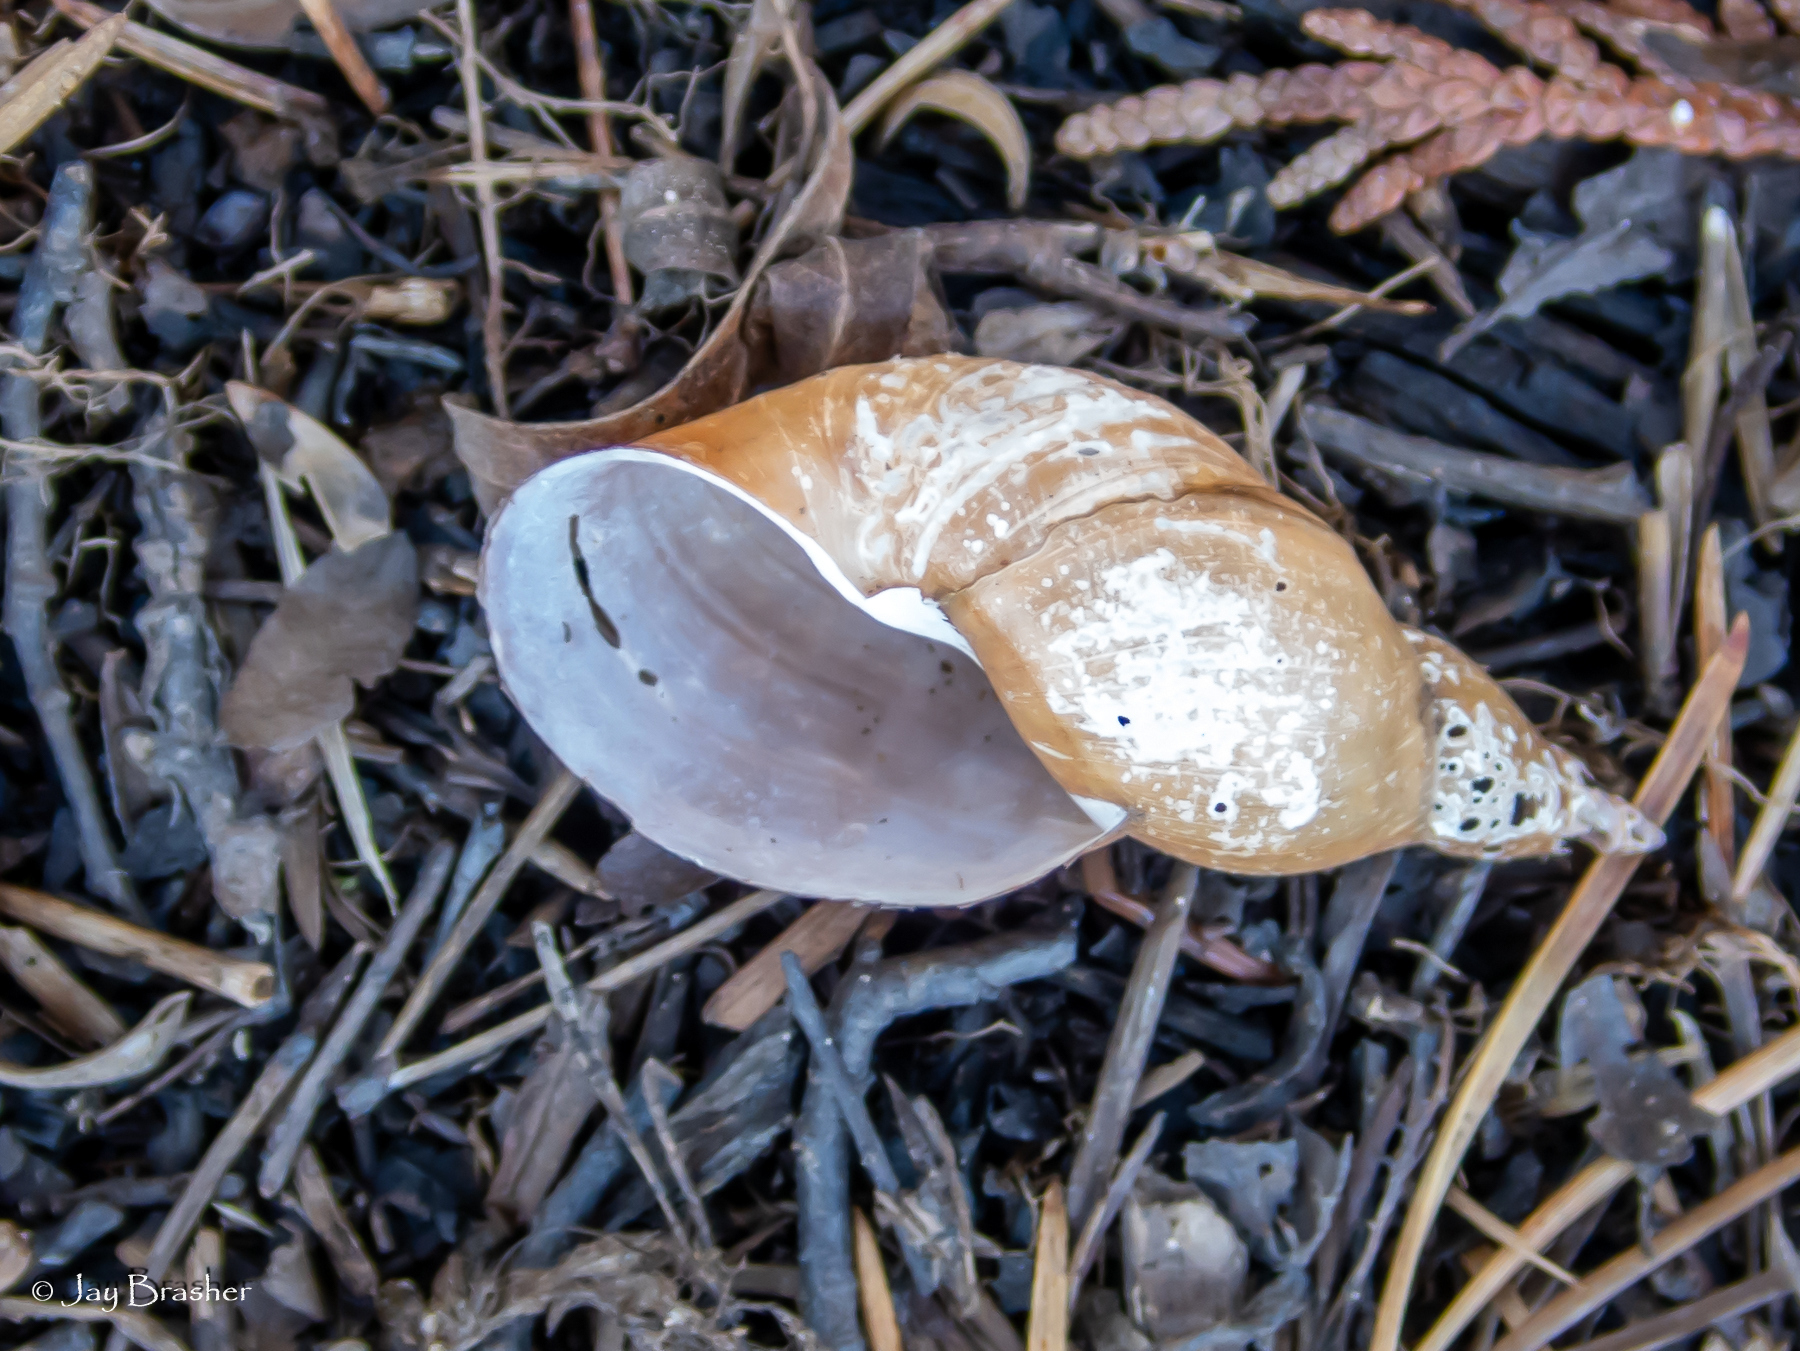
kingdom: Animalia
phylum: Mollusca
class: Gastropoda
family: Lymnaeidae
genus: Lymnaea
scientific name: Lymnaea stagnalis
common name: Great pond snail
